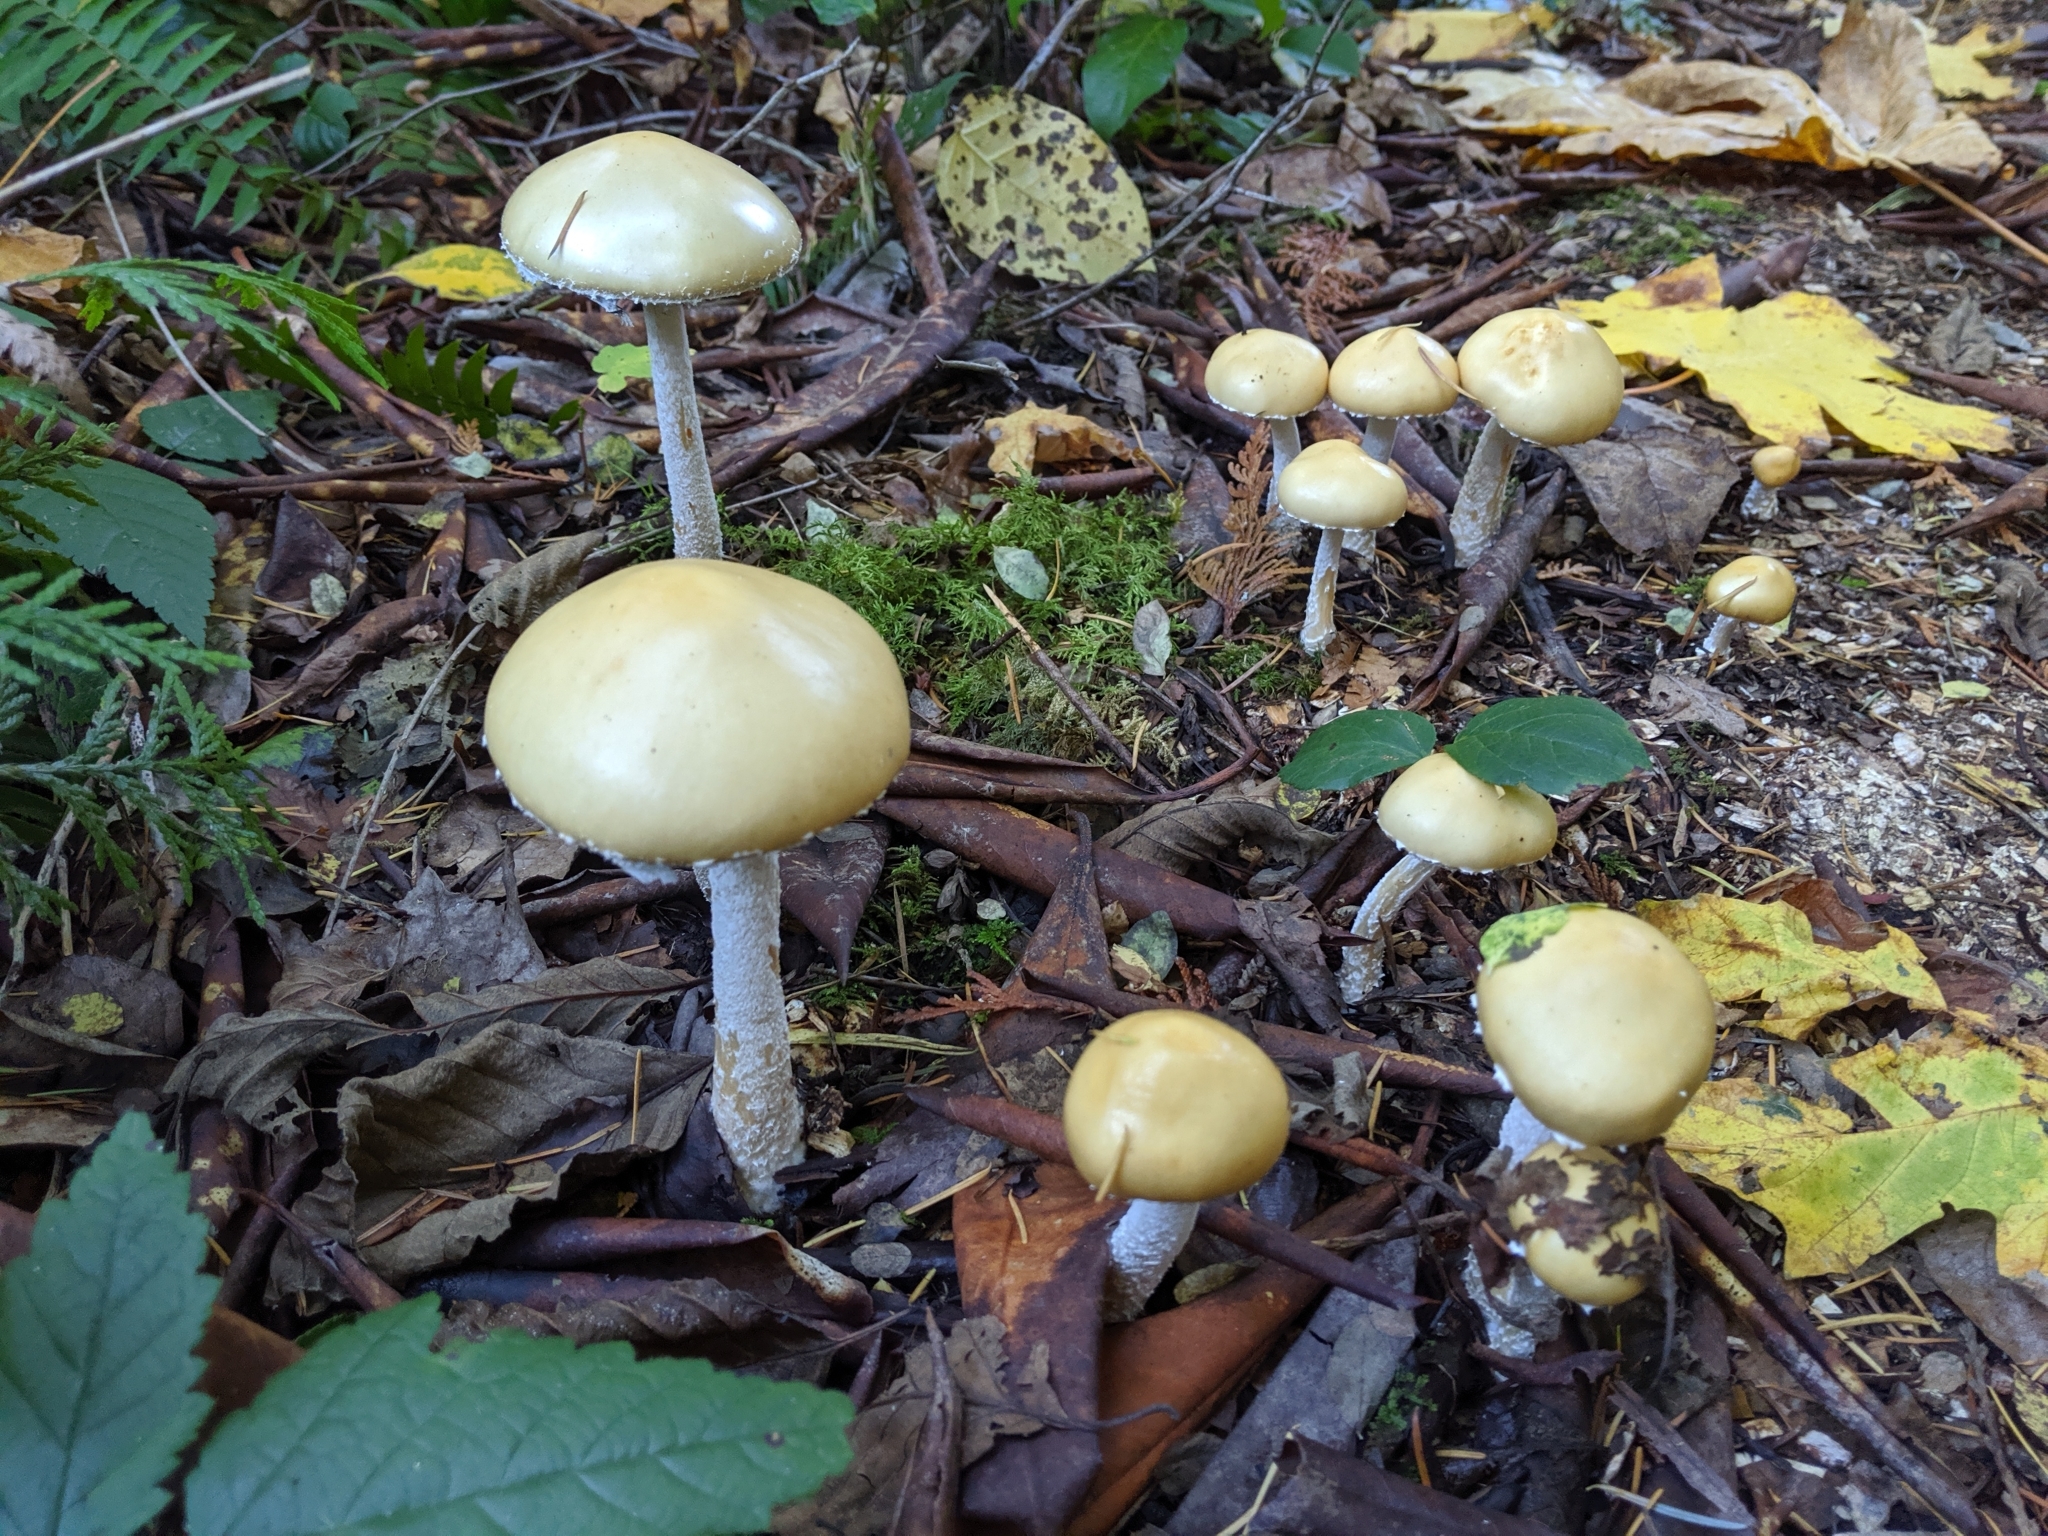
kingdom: Fungi
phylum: Basidiomycota
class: Agaricomycetes
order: Agaricales
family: Strophariaceae
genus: Stropharia
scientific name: Stropharia ambigua
